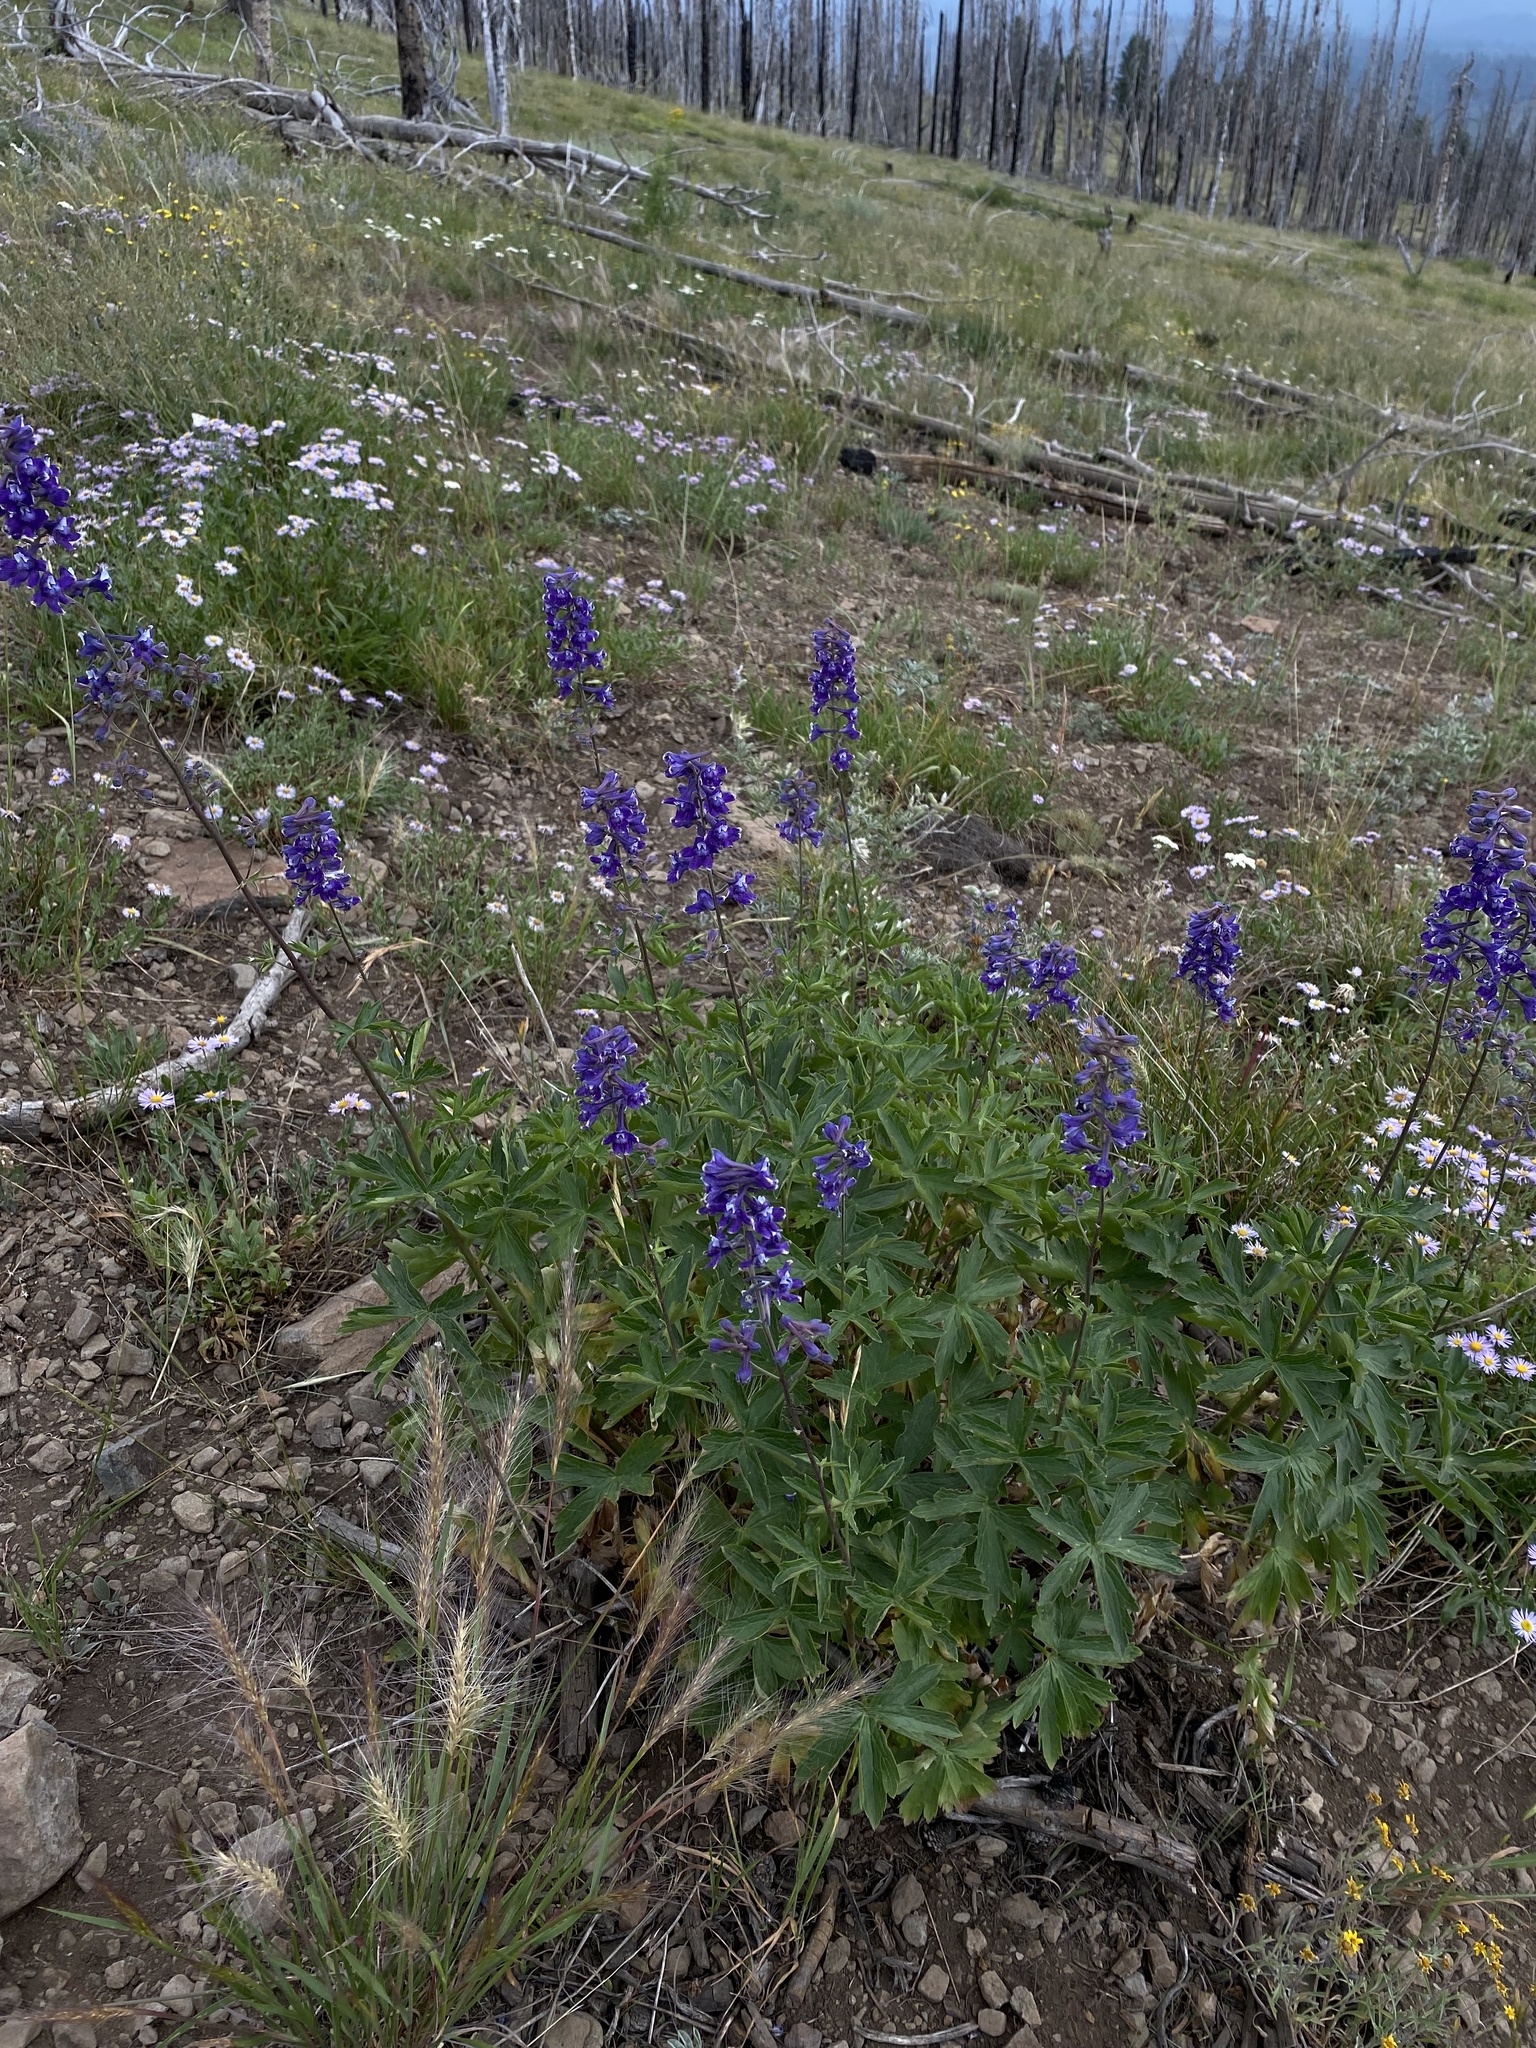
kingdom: Plantae
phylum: Tracheophyta
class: Magnoliopsida
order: Ranunculales
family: Ranunculaceae
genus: Delphinium
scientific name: Delphinium occidentale
